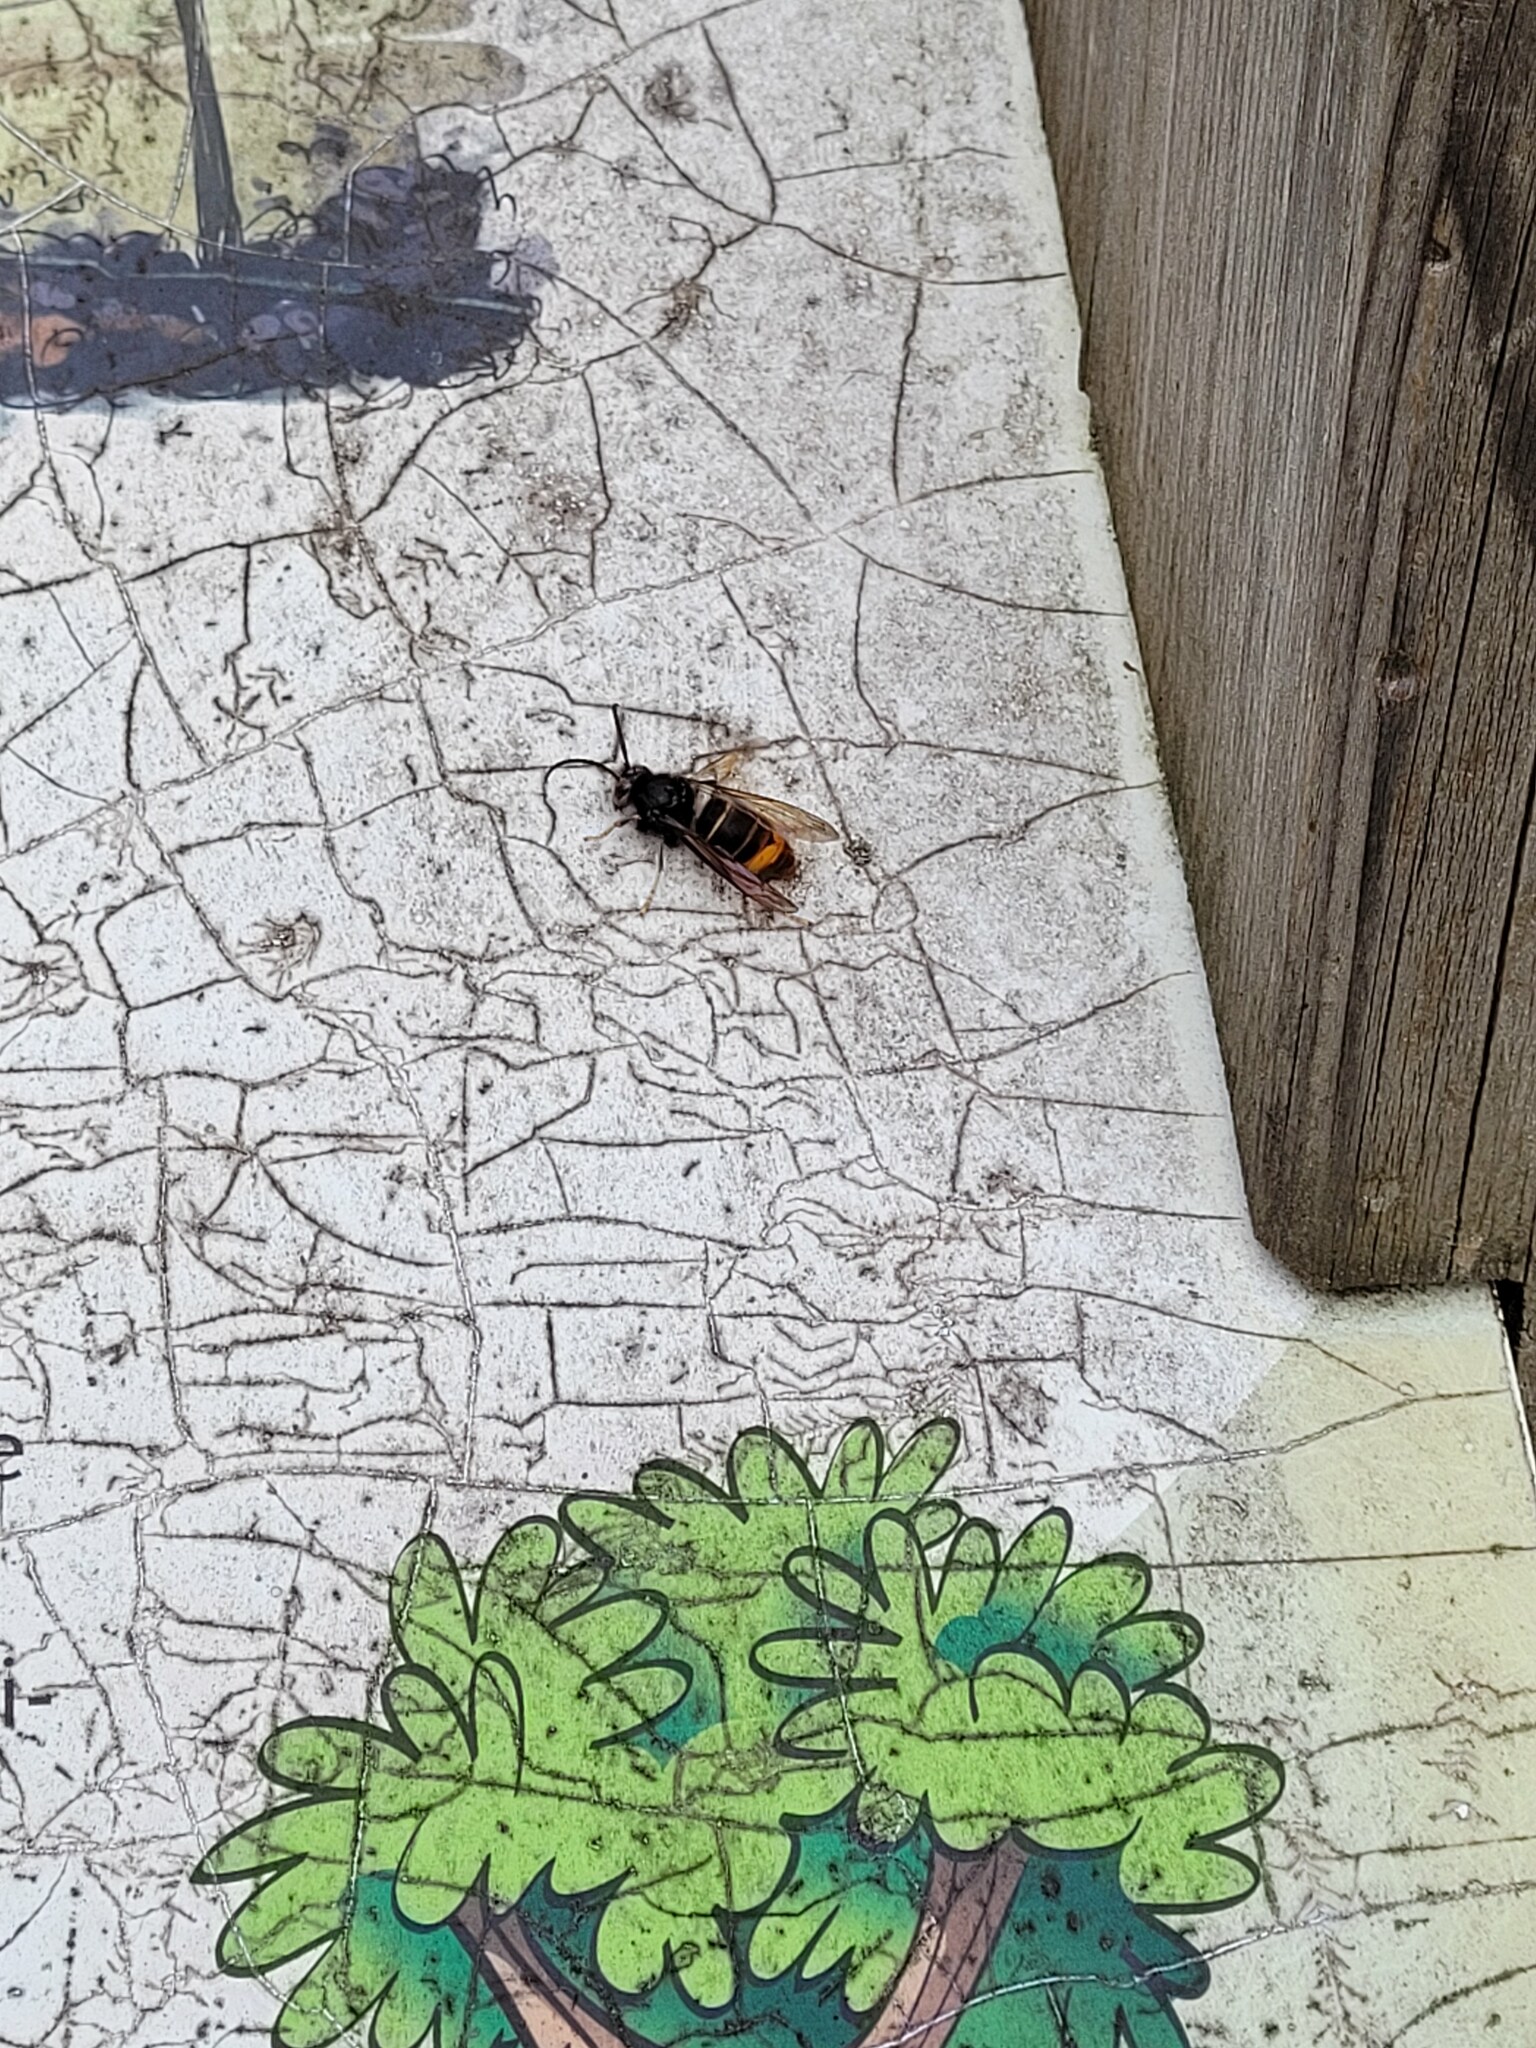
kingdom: Animalia
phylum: Arthropoda
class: Insecta
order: Hymenoptera
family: Vespidae
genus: Vespa
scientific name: Vespa velutina
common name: Asian hornet
